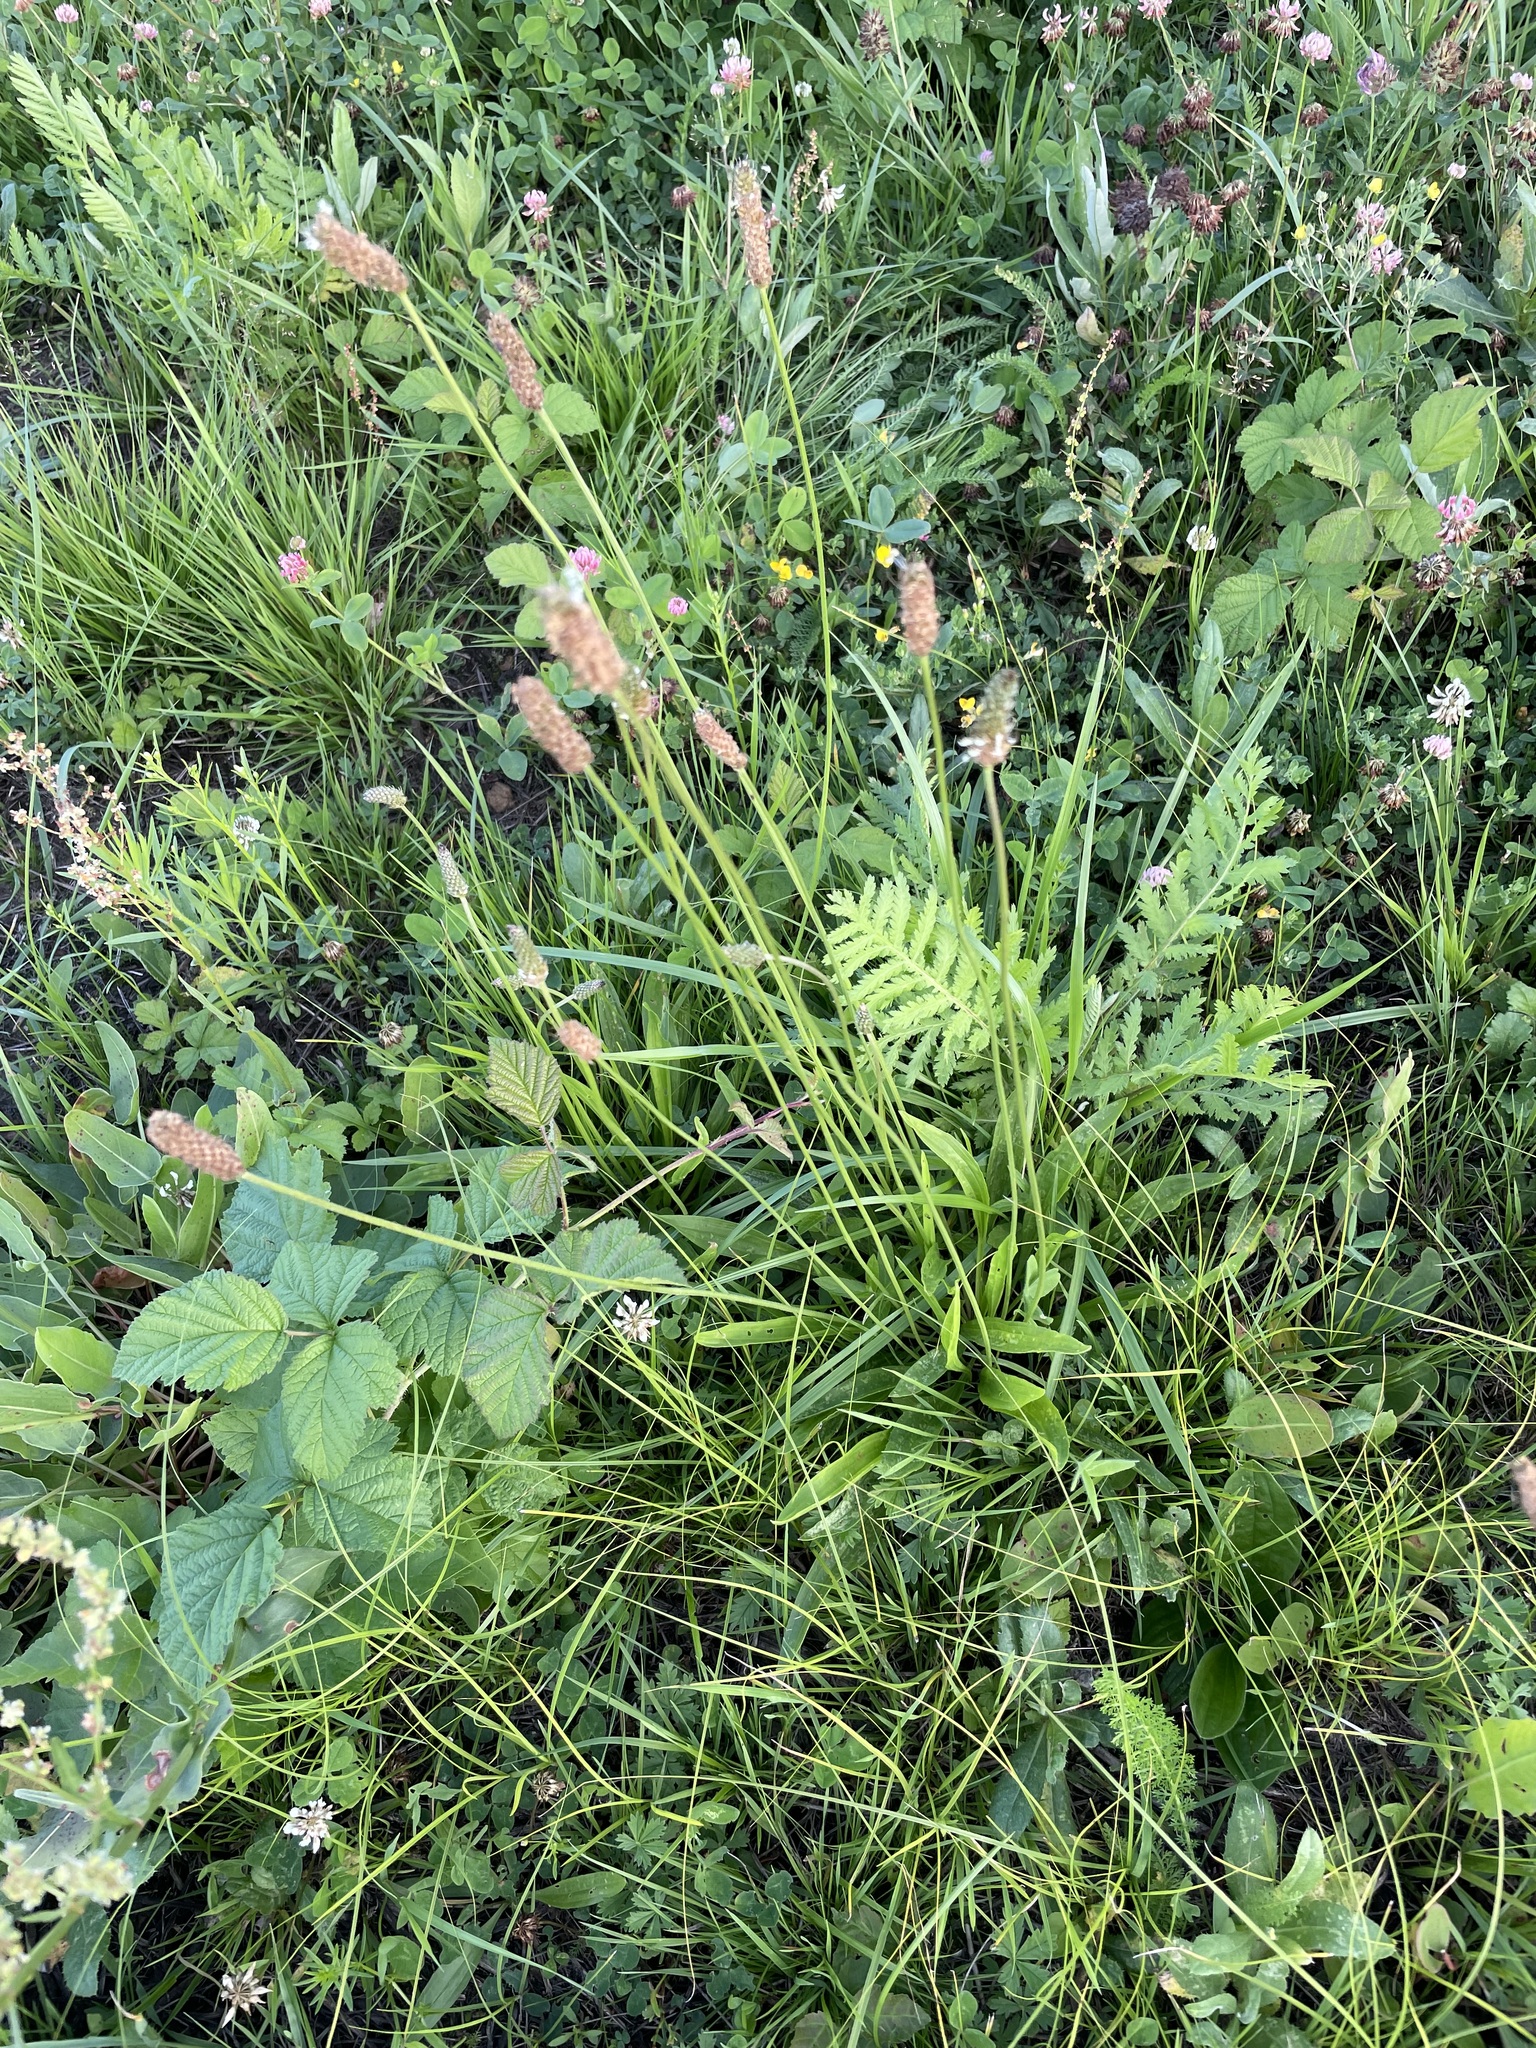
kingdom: Plantae
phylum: Tracheophyta
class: Magnoliopsida
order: Lamiales
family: Plantaginaceae
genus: Plantago
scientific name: Plantago lanceolata
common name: Ribwort plantain
